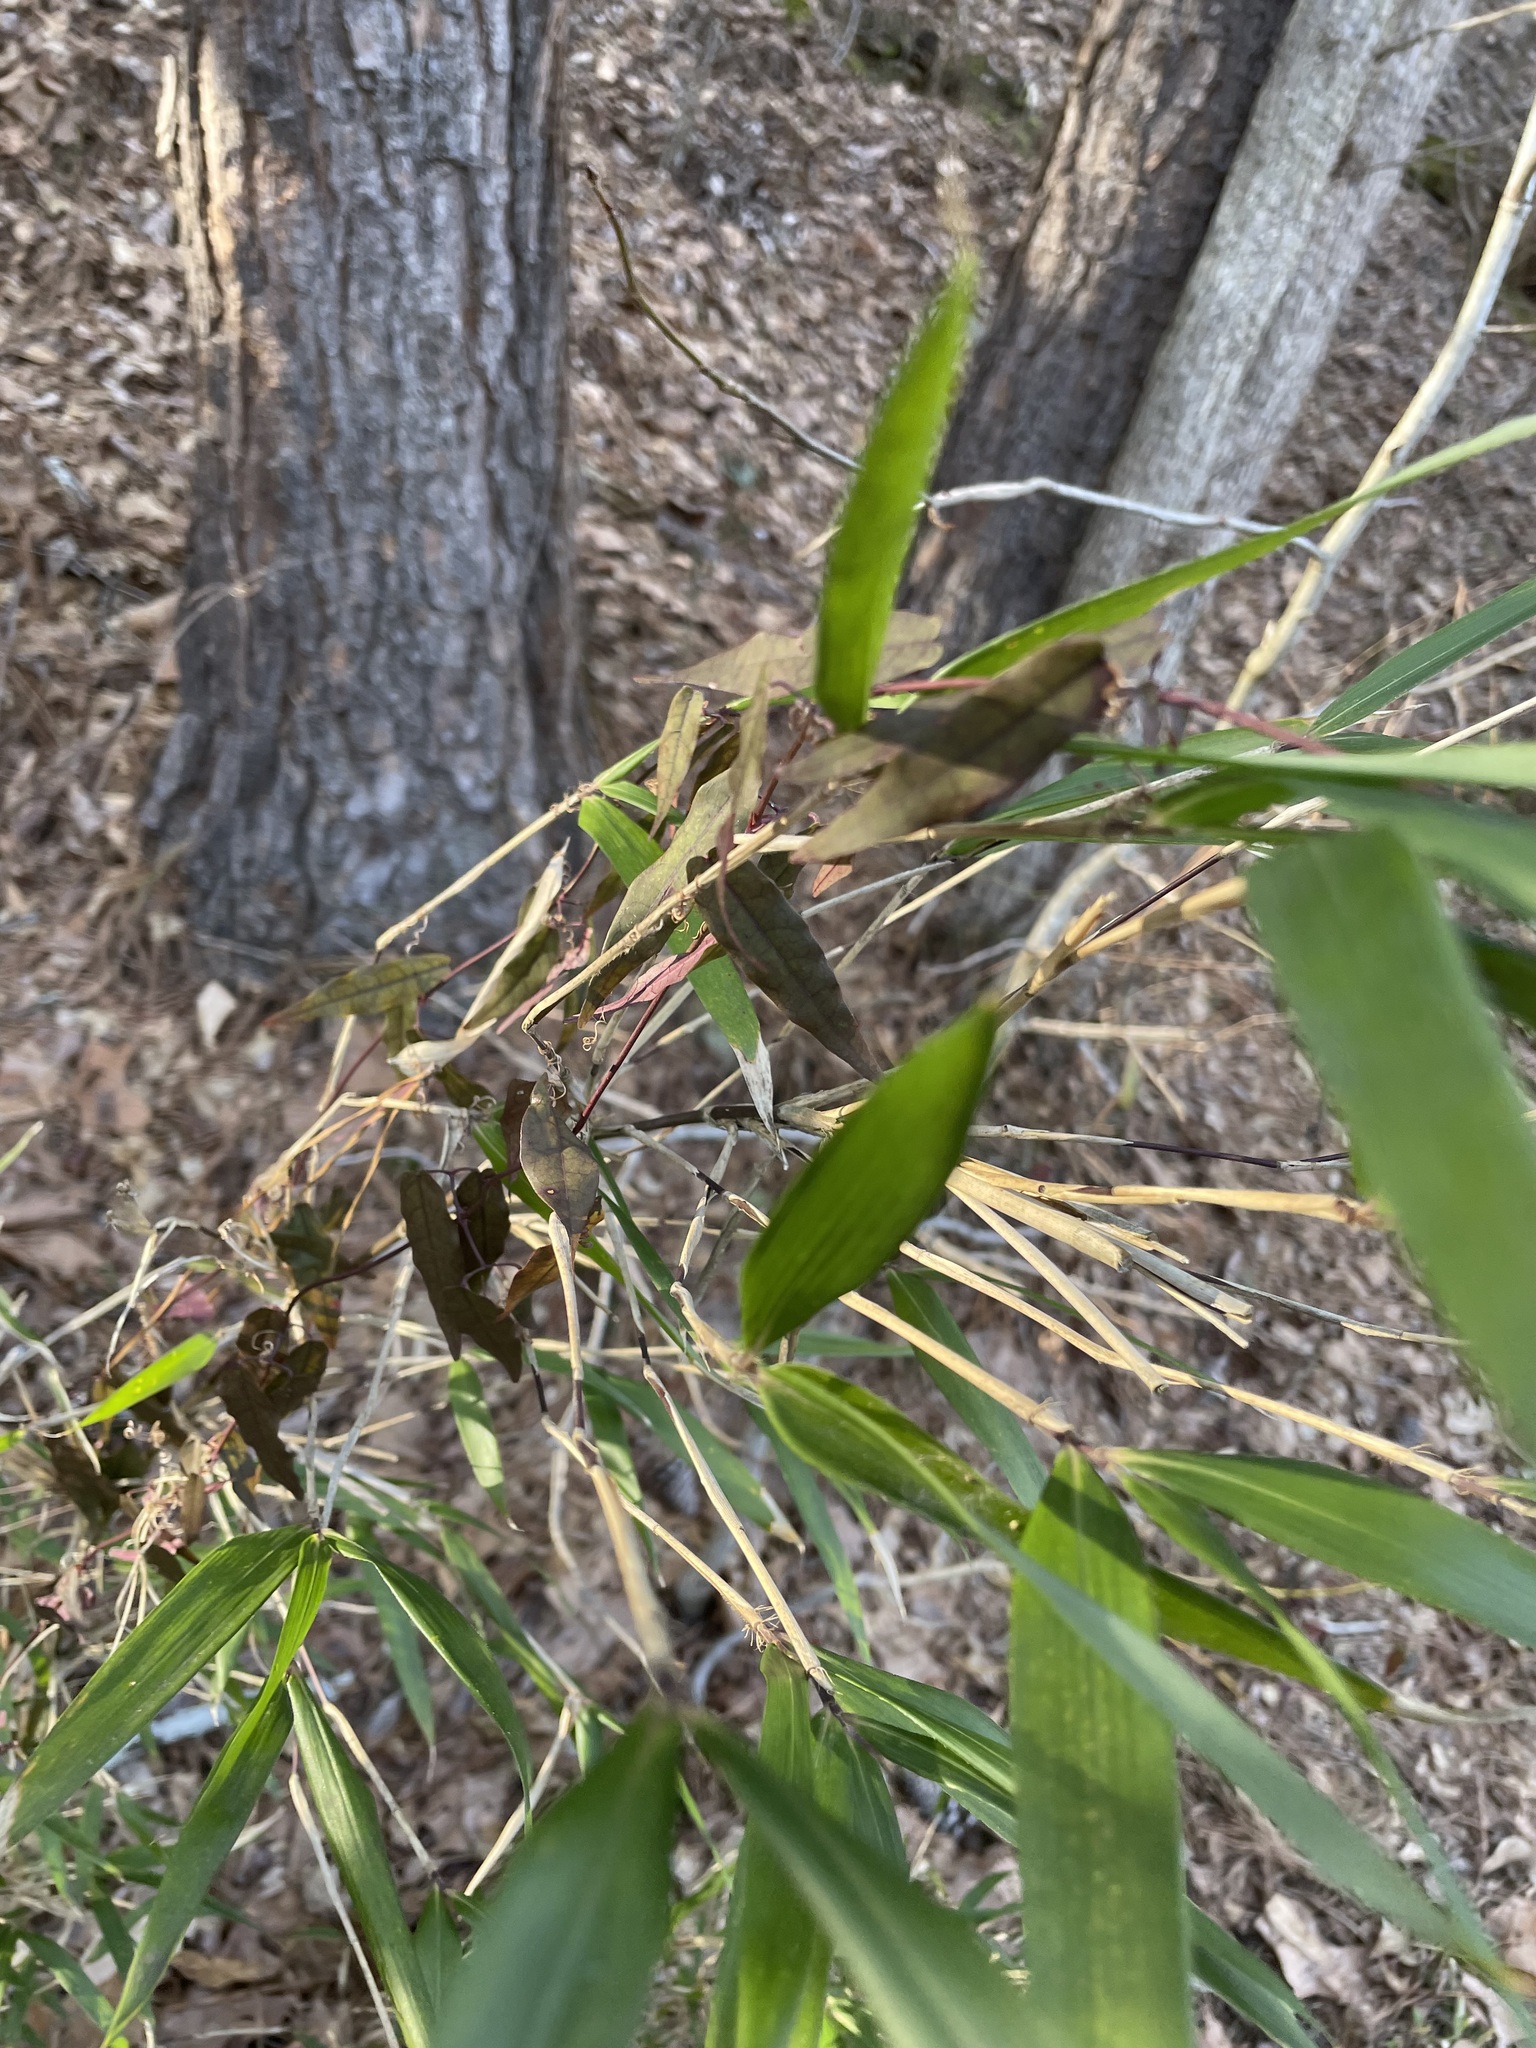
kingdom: Plantae
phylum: Tracheophyta
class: Liliopsida
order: Poales
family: Poaceae
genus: Arundinaria
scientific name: Arundinaria gigantea
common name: Giant cane
